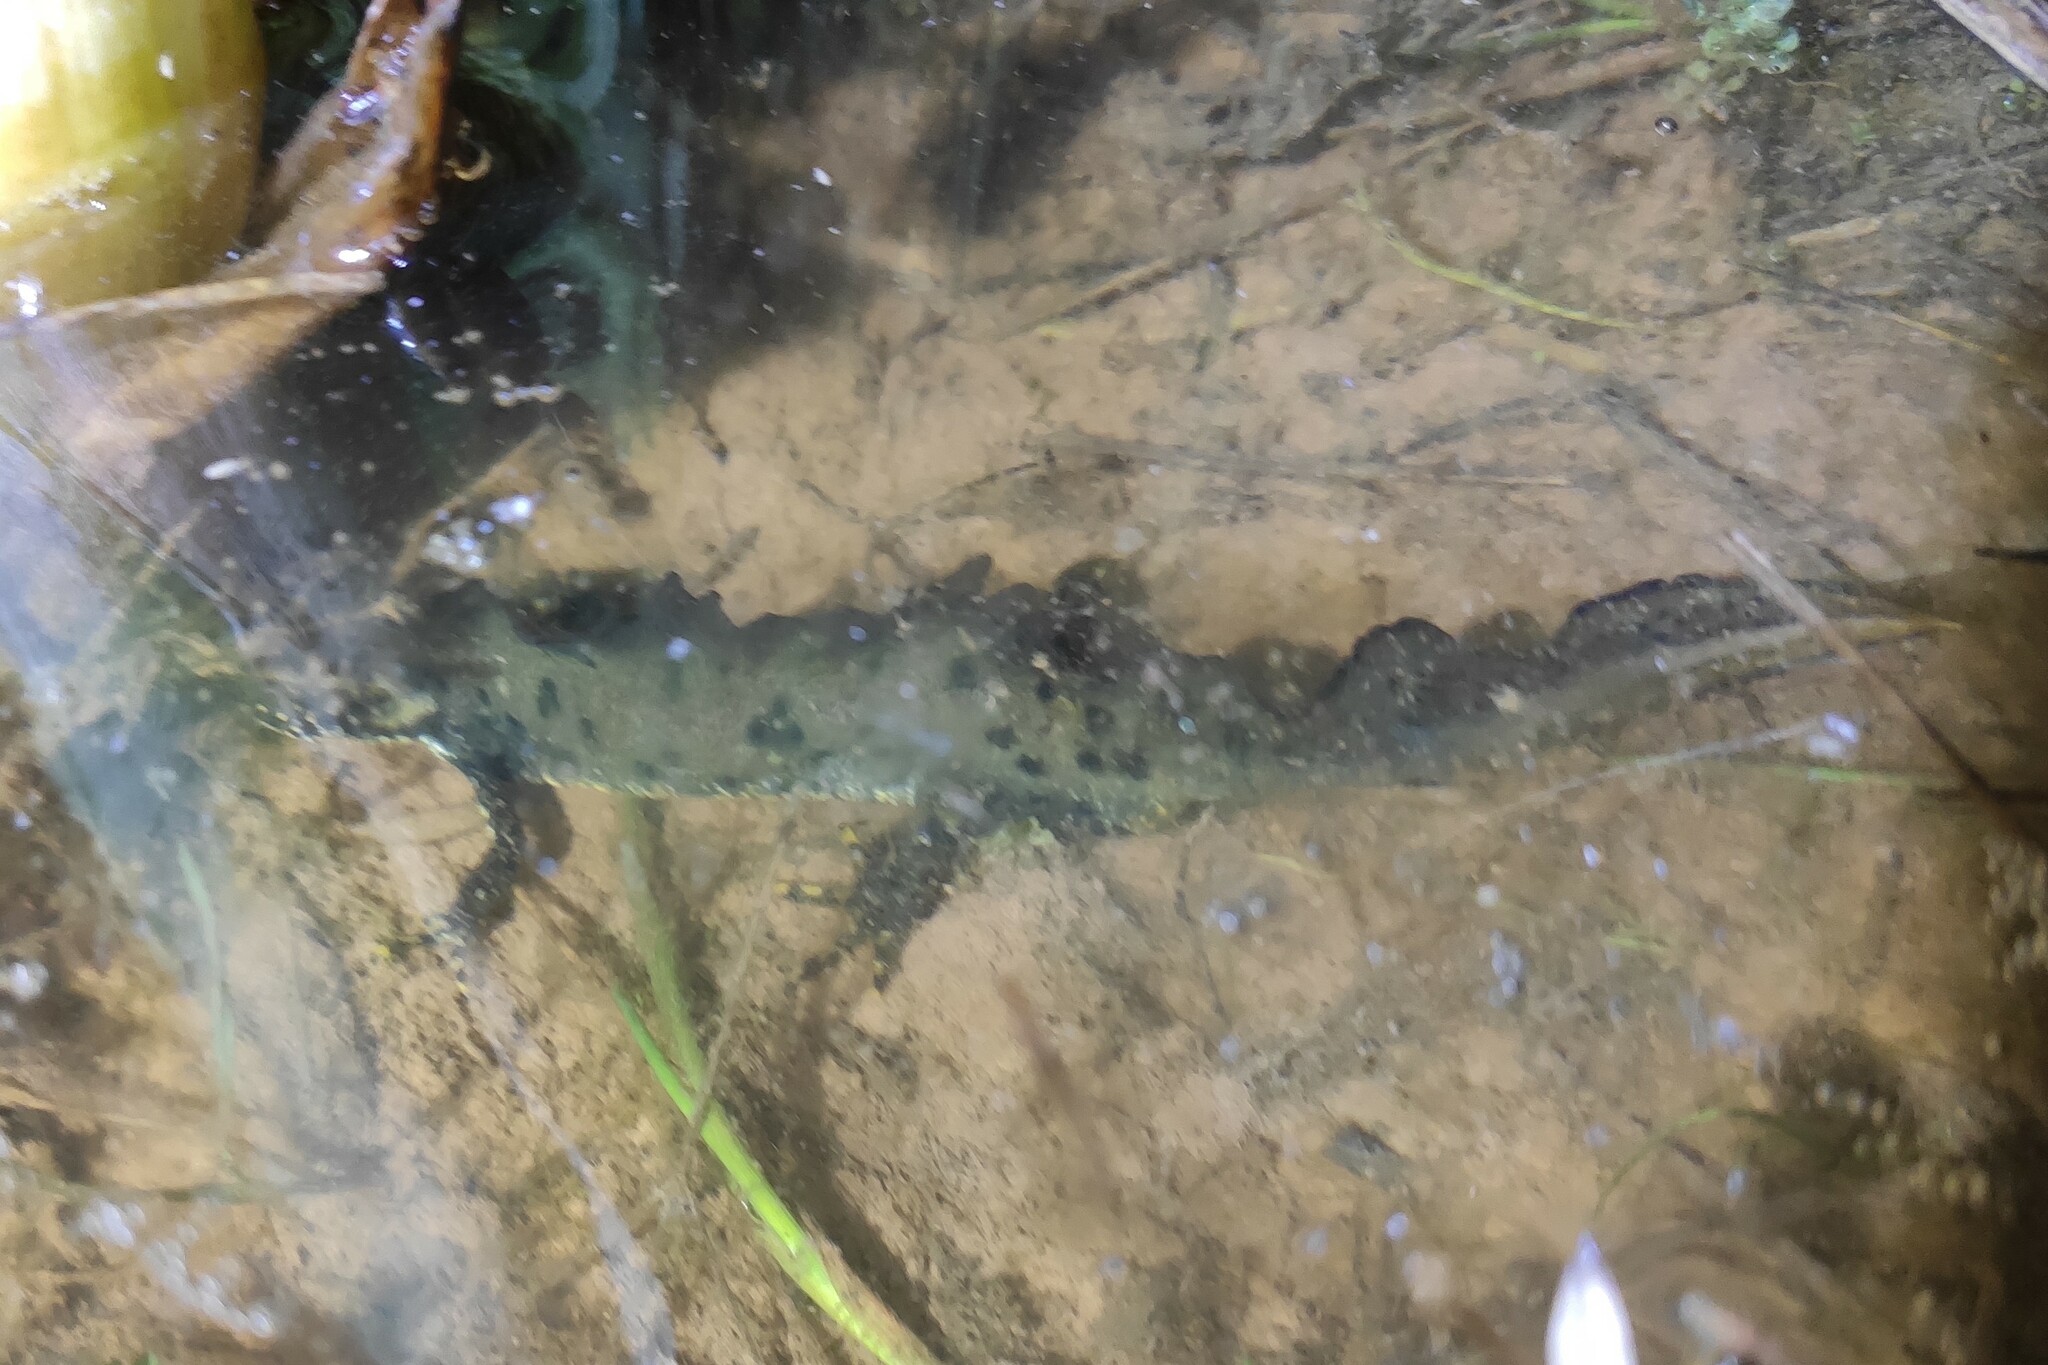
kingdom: Animalia
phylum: Chordata
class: Amphibia
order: Caudata
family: Salamandridae
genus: Triturus
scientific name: Triturus cristatus
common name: Crested newt
